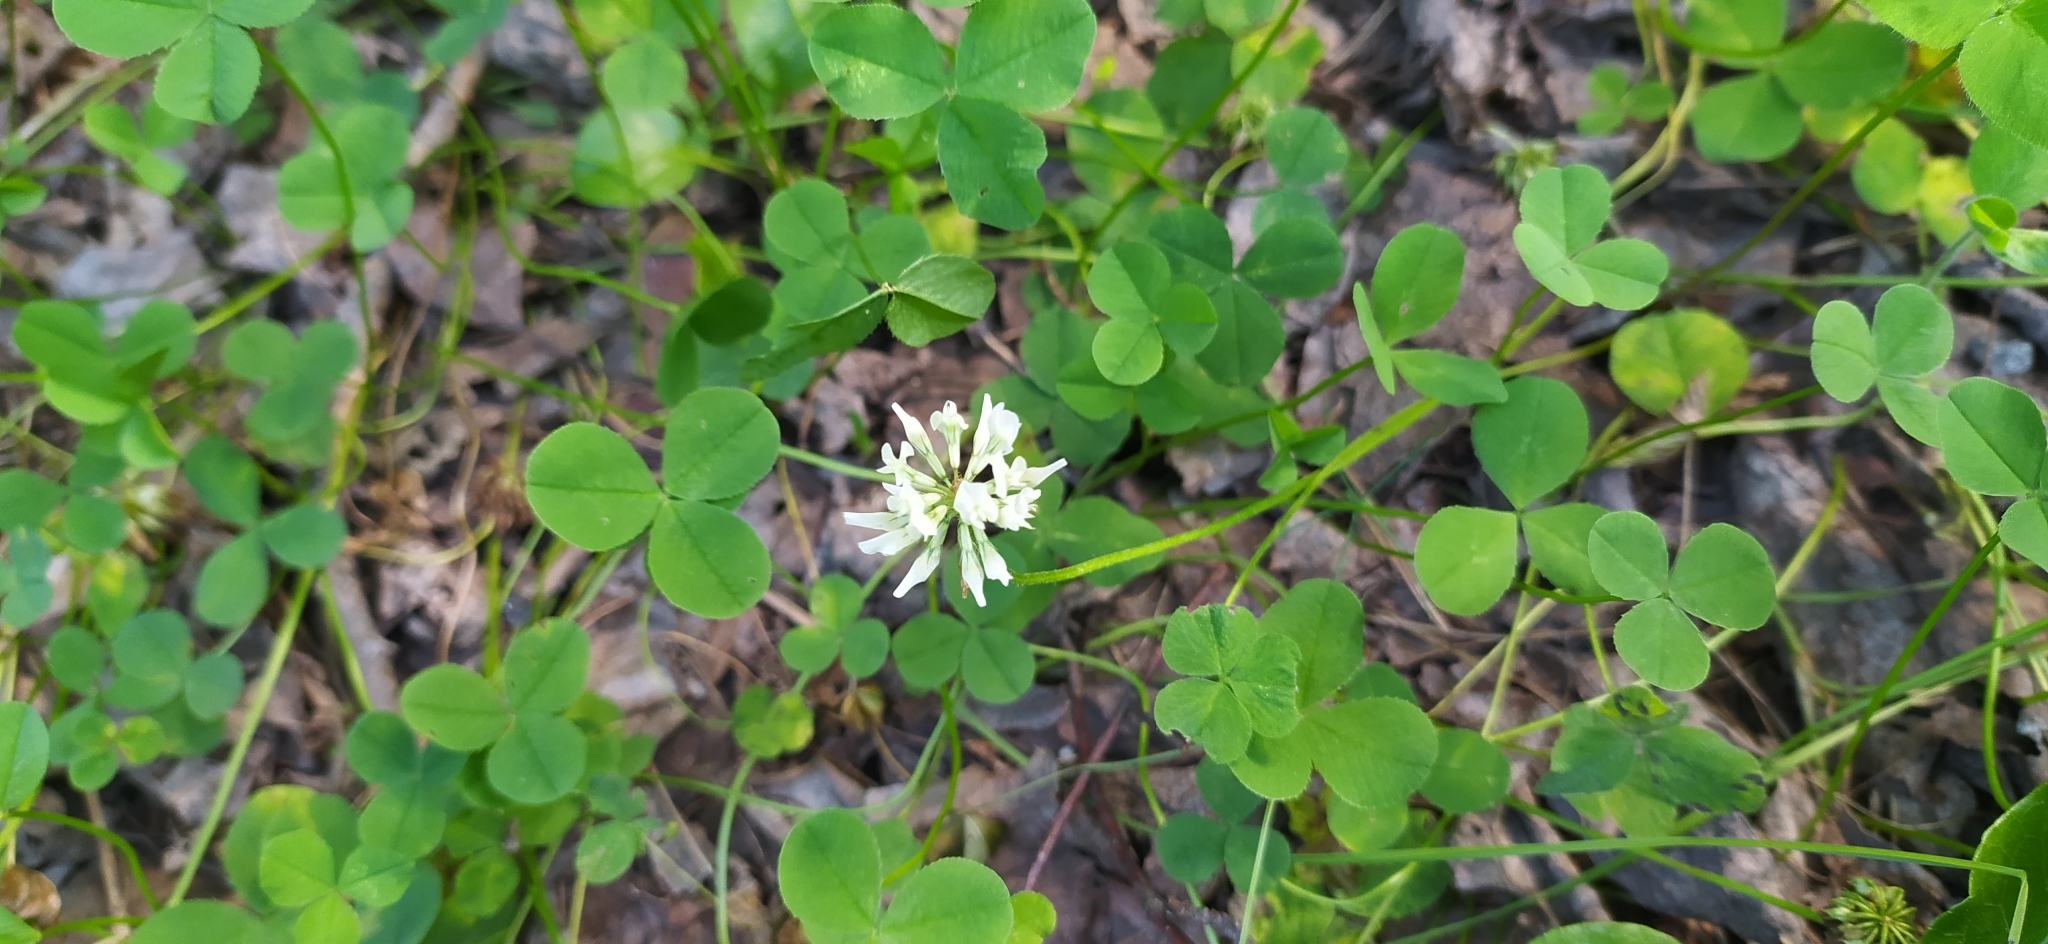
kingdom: Plantae
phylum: Tracheophyta
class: Magnoliopsida
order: Fabales
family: Fabaceae
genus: Trifolium
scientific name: Trifolium repens
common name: White clover
